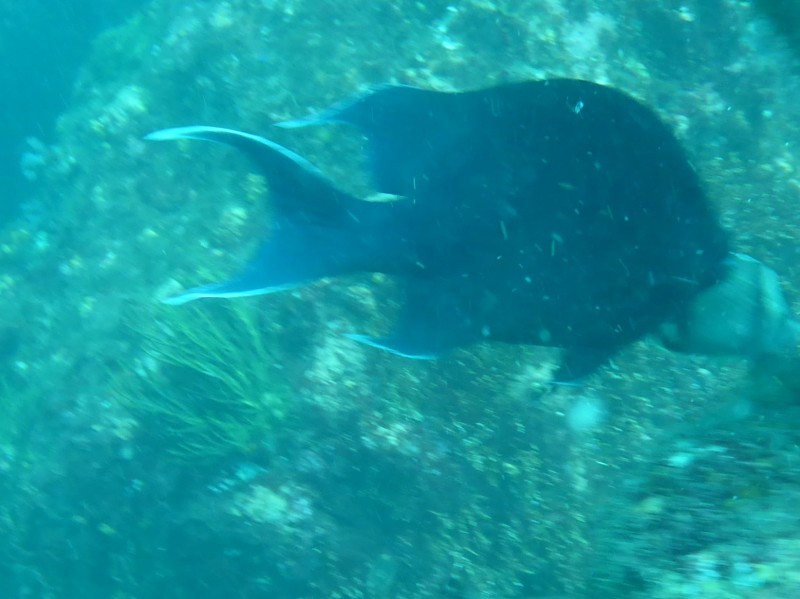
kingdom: Animalia
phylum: Chordata
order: Perciformes
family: Pomacentridae
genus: Microspathodon
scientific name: Microspathodon dorsalis
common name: Giant damselfish
